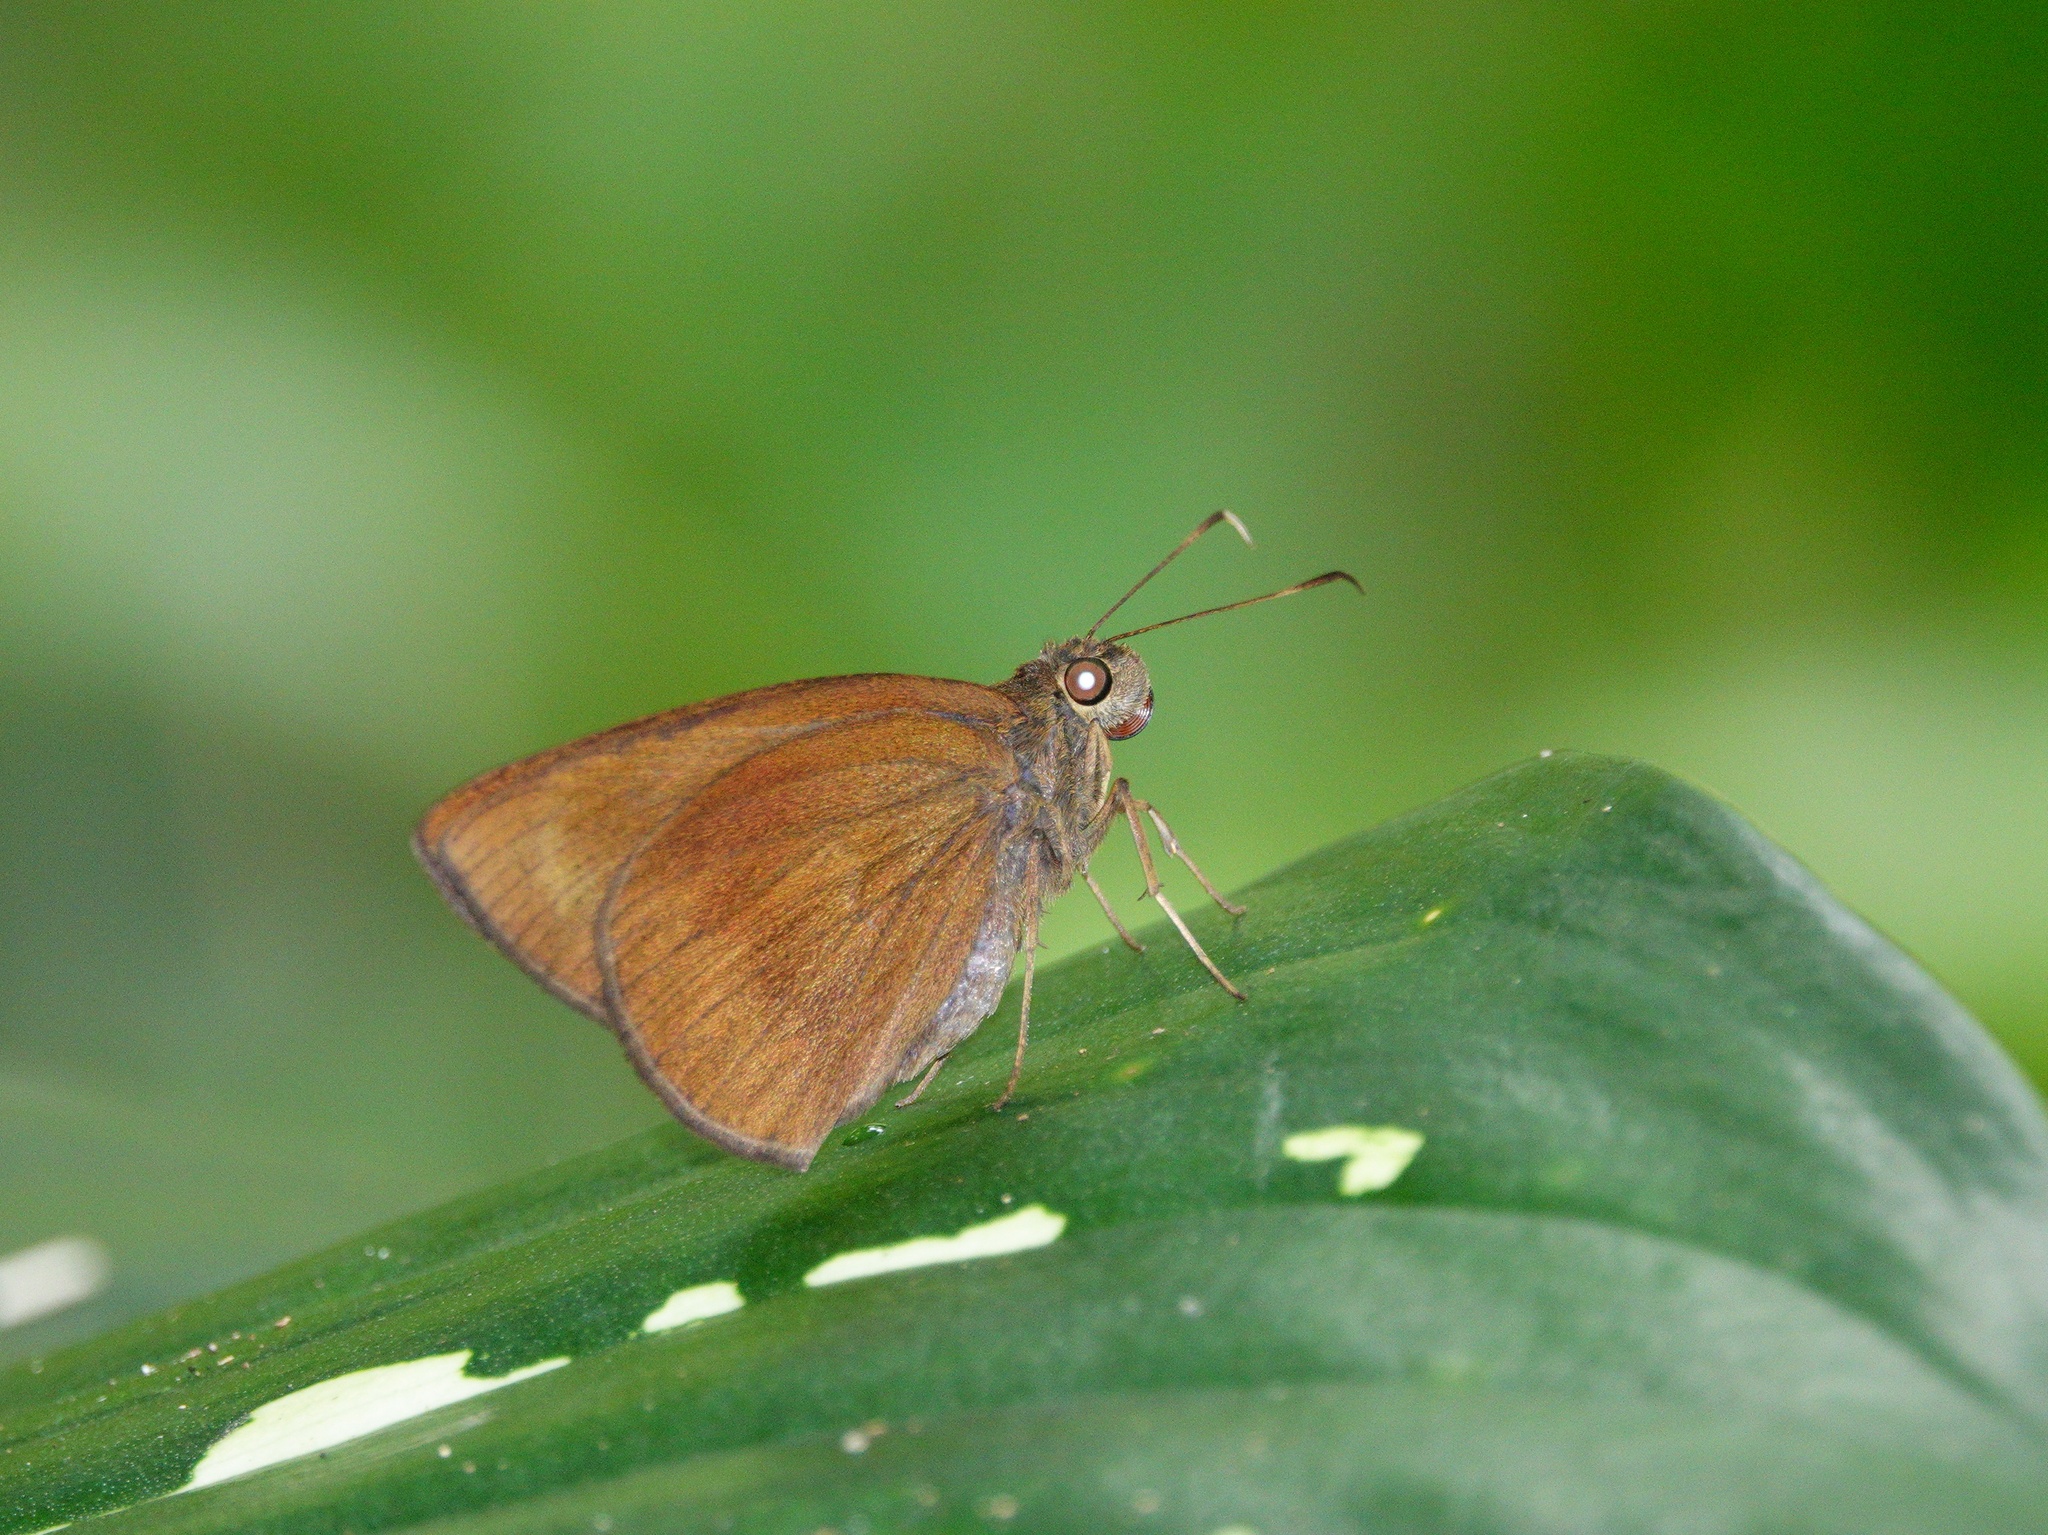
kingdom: Animalia
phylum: Arthropoda
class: Insecta
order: Lepidoptera
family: Hesperiidae
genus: Ancistroides
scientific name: Ancistroides nigrita
